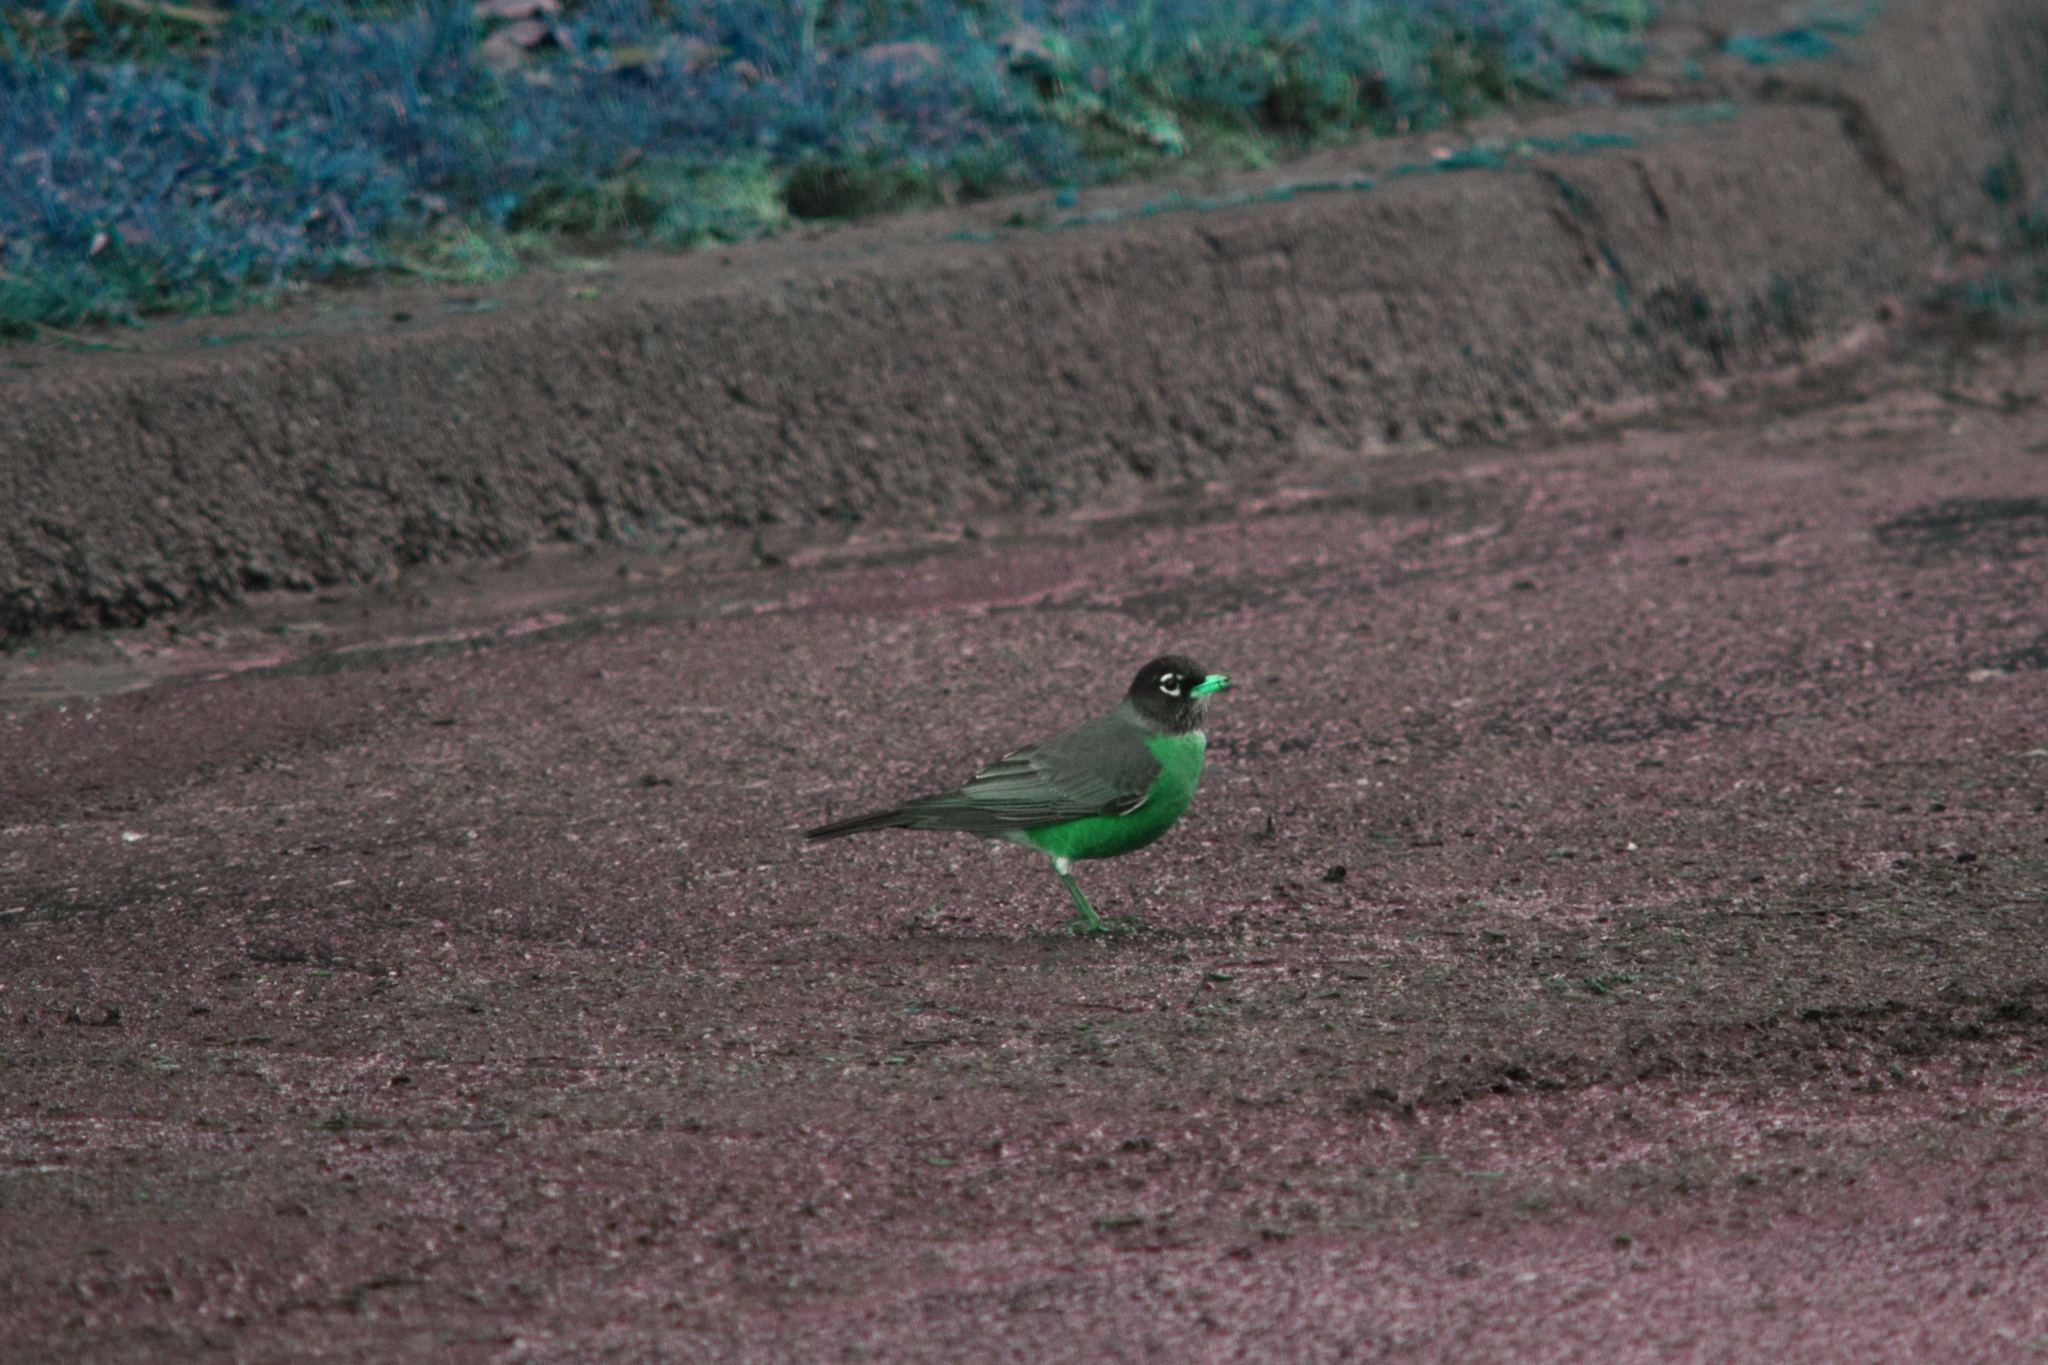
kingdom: Animalia
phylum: Chordata
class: Aves
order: Passeriformes
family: Turdidae
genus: Turdus
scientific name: Turdus migratorius
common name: American robin
